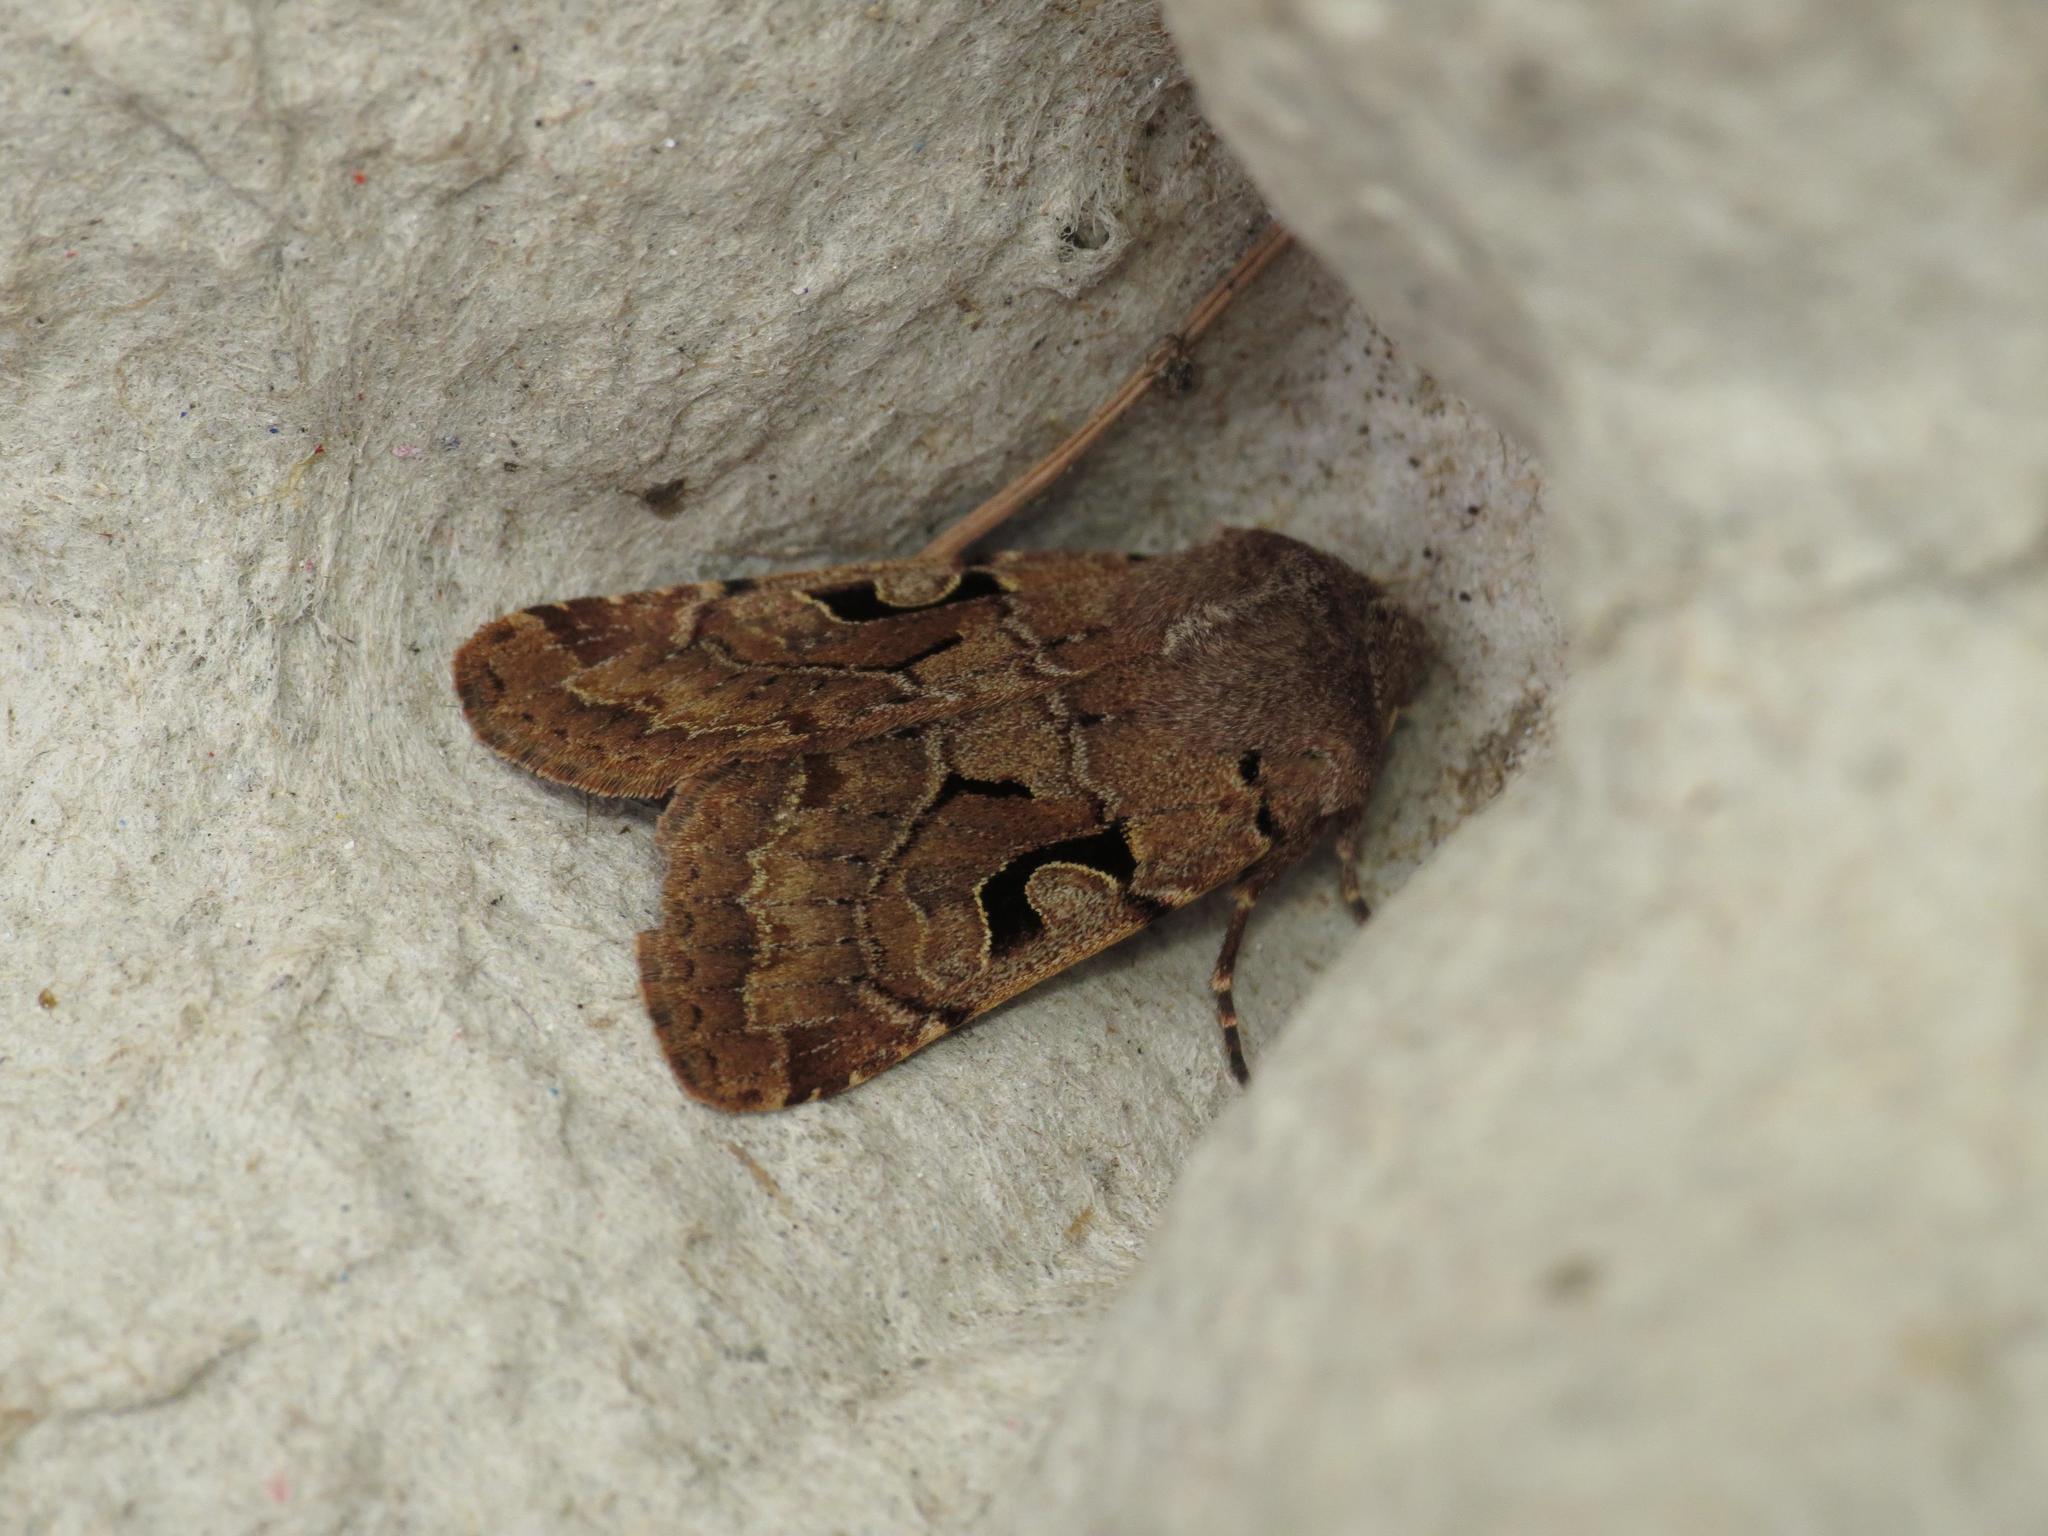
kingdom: Animalia
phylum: Arthropoda
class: Insecta
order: Lepidoptera
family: Noctuidae
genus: Orthosia
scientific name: Orthosia gothica
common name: Hebrew character
